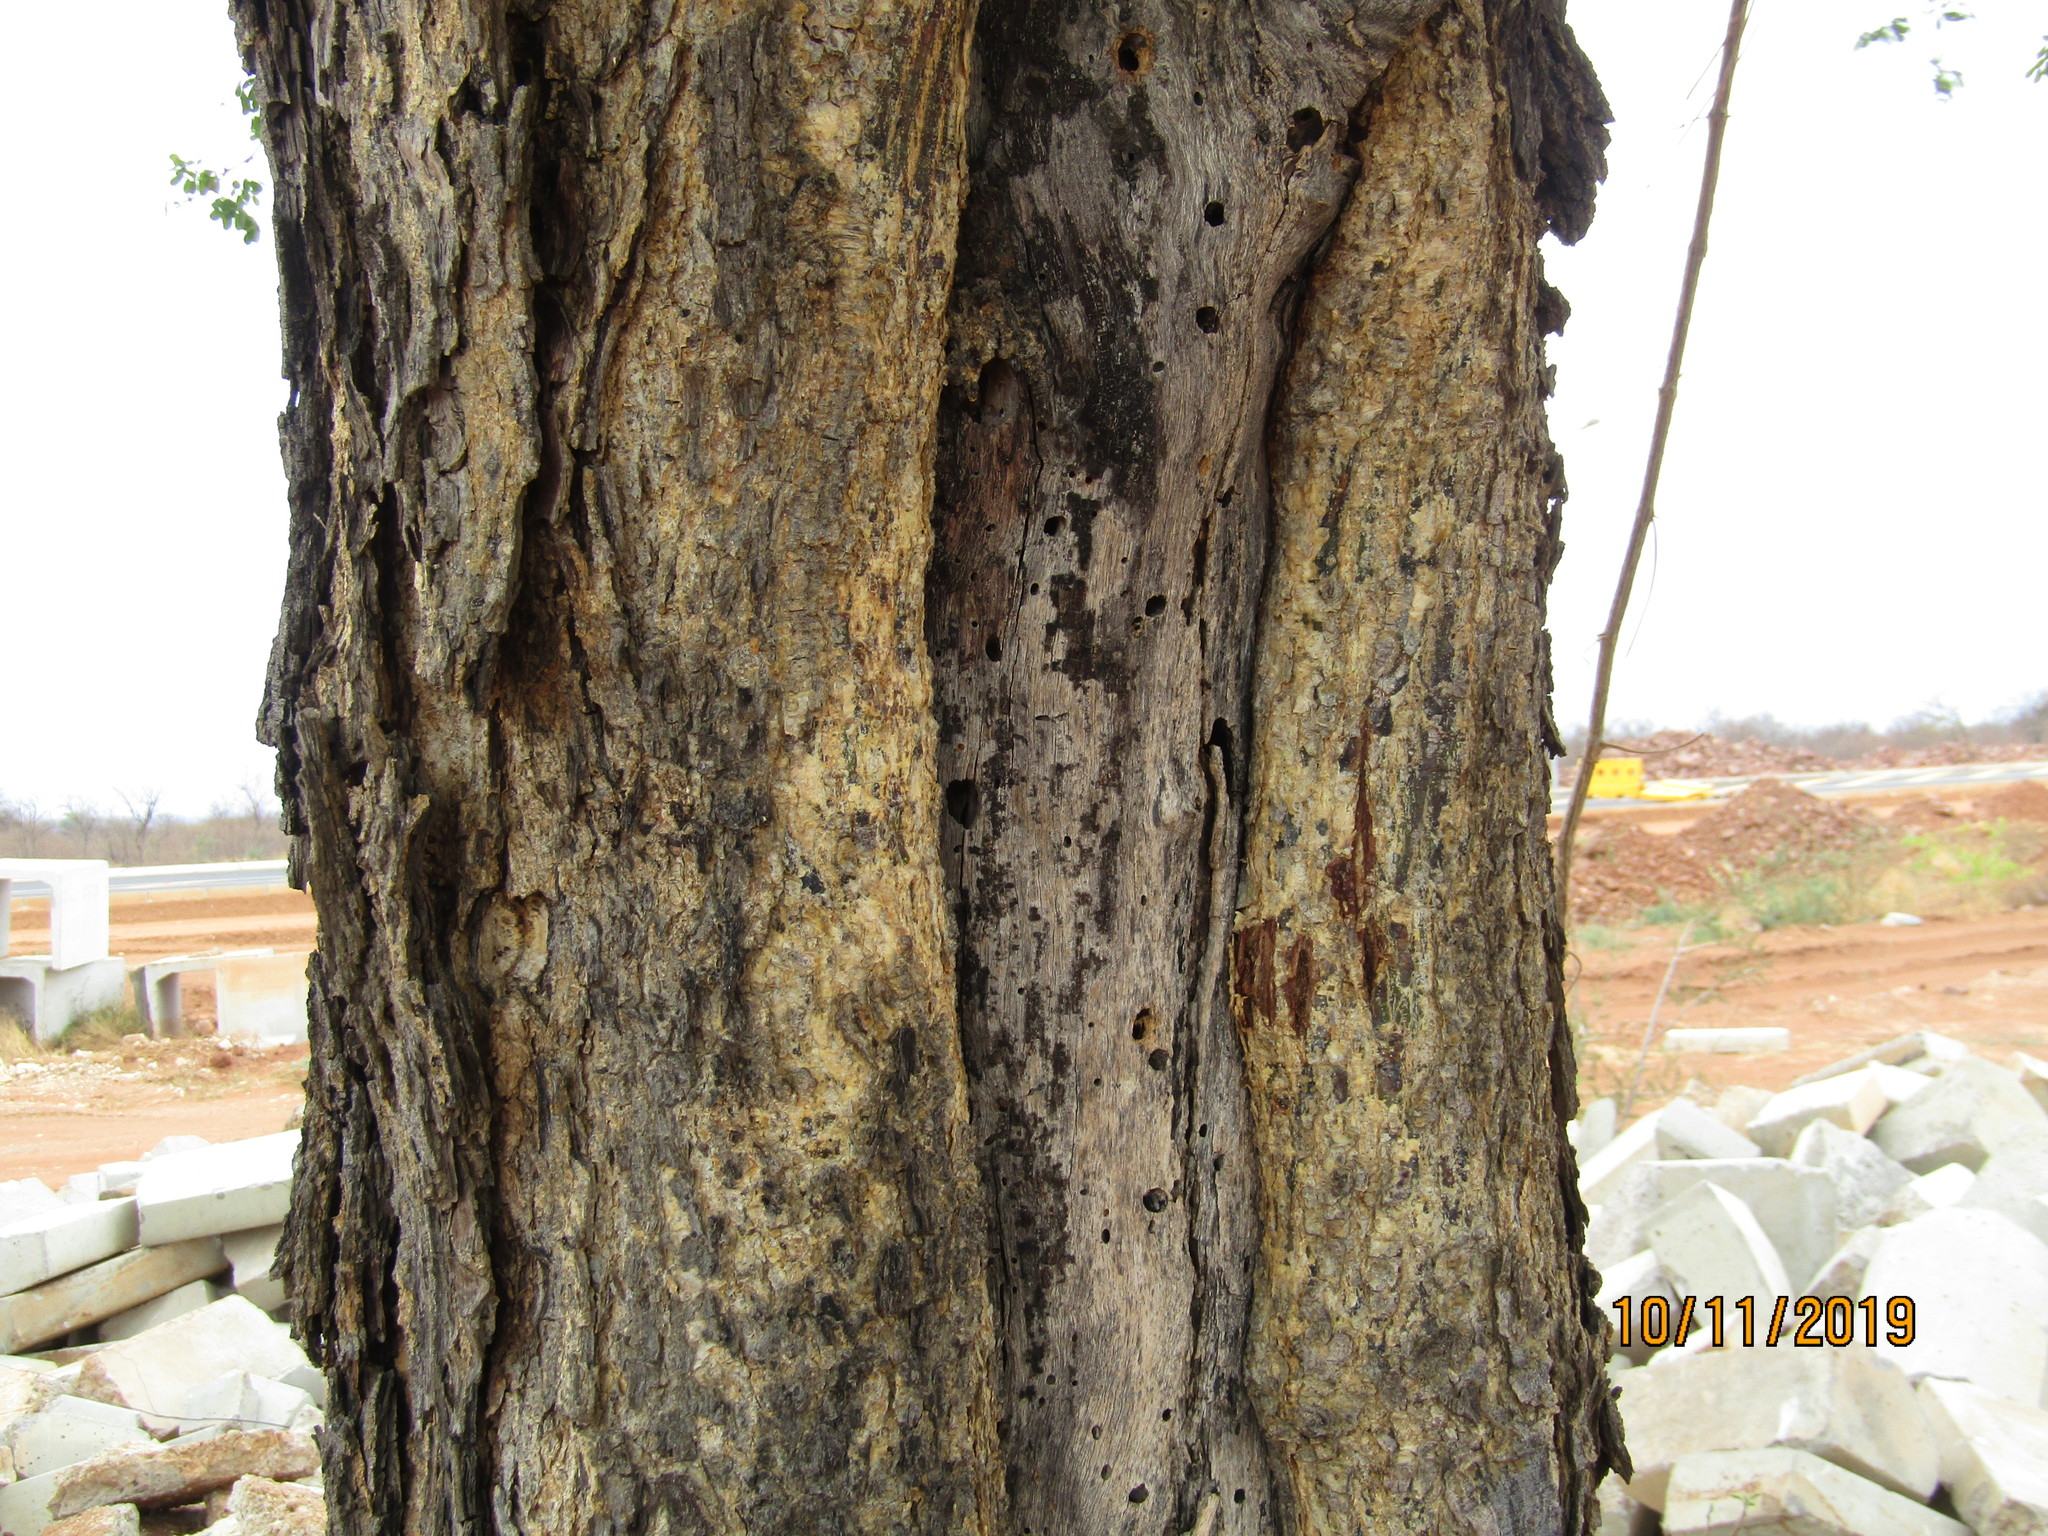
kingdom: Plantae
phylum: Tracheophyta
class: Magnoliopsida
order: Fabales
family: Fabaceae
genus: Senegalia
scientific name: Senegalia burkei
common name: Black monkey thorn
